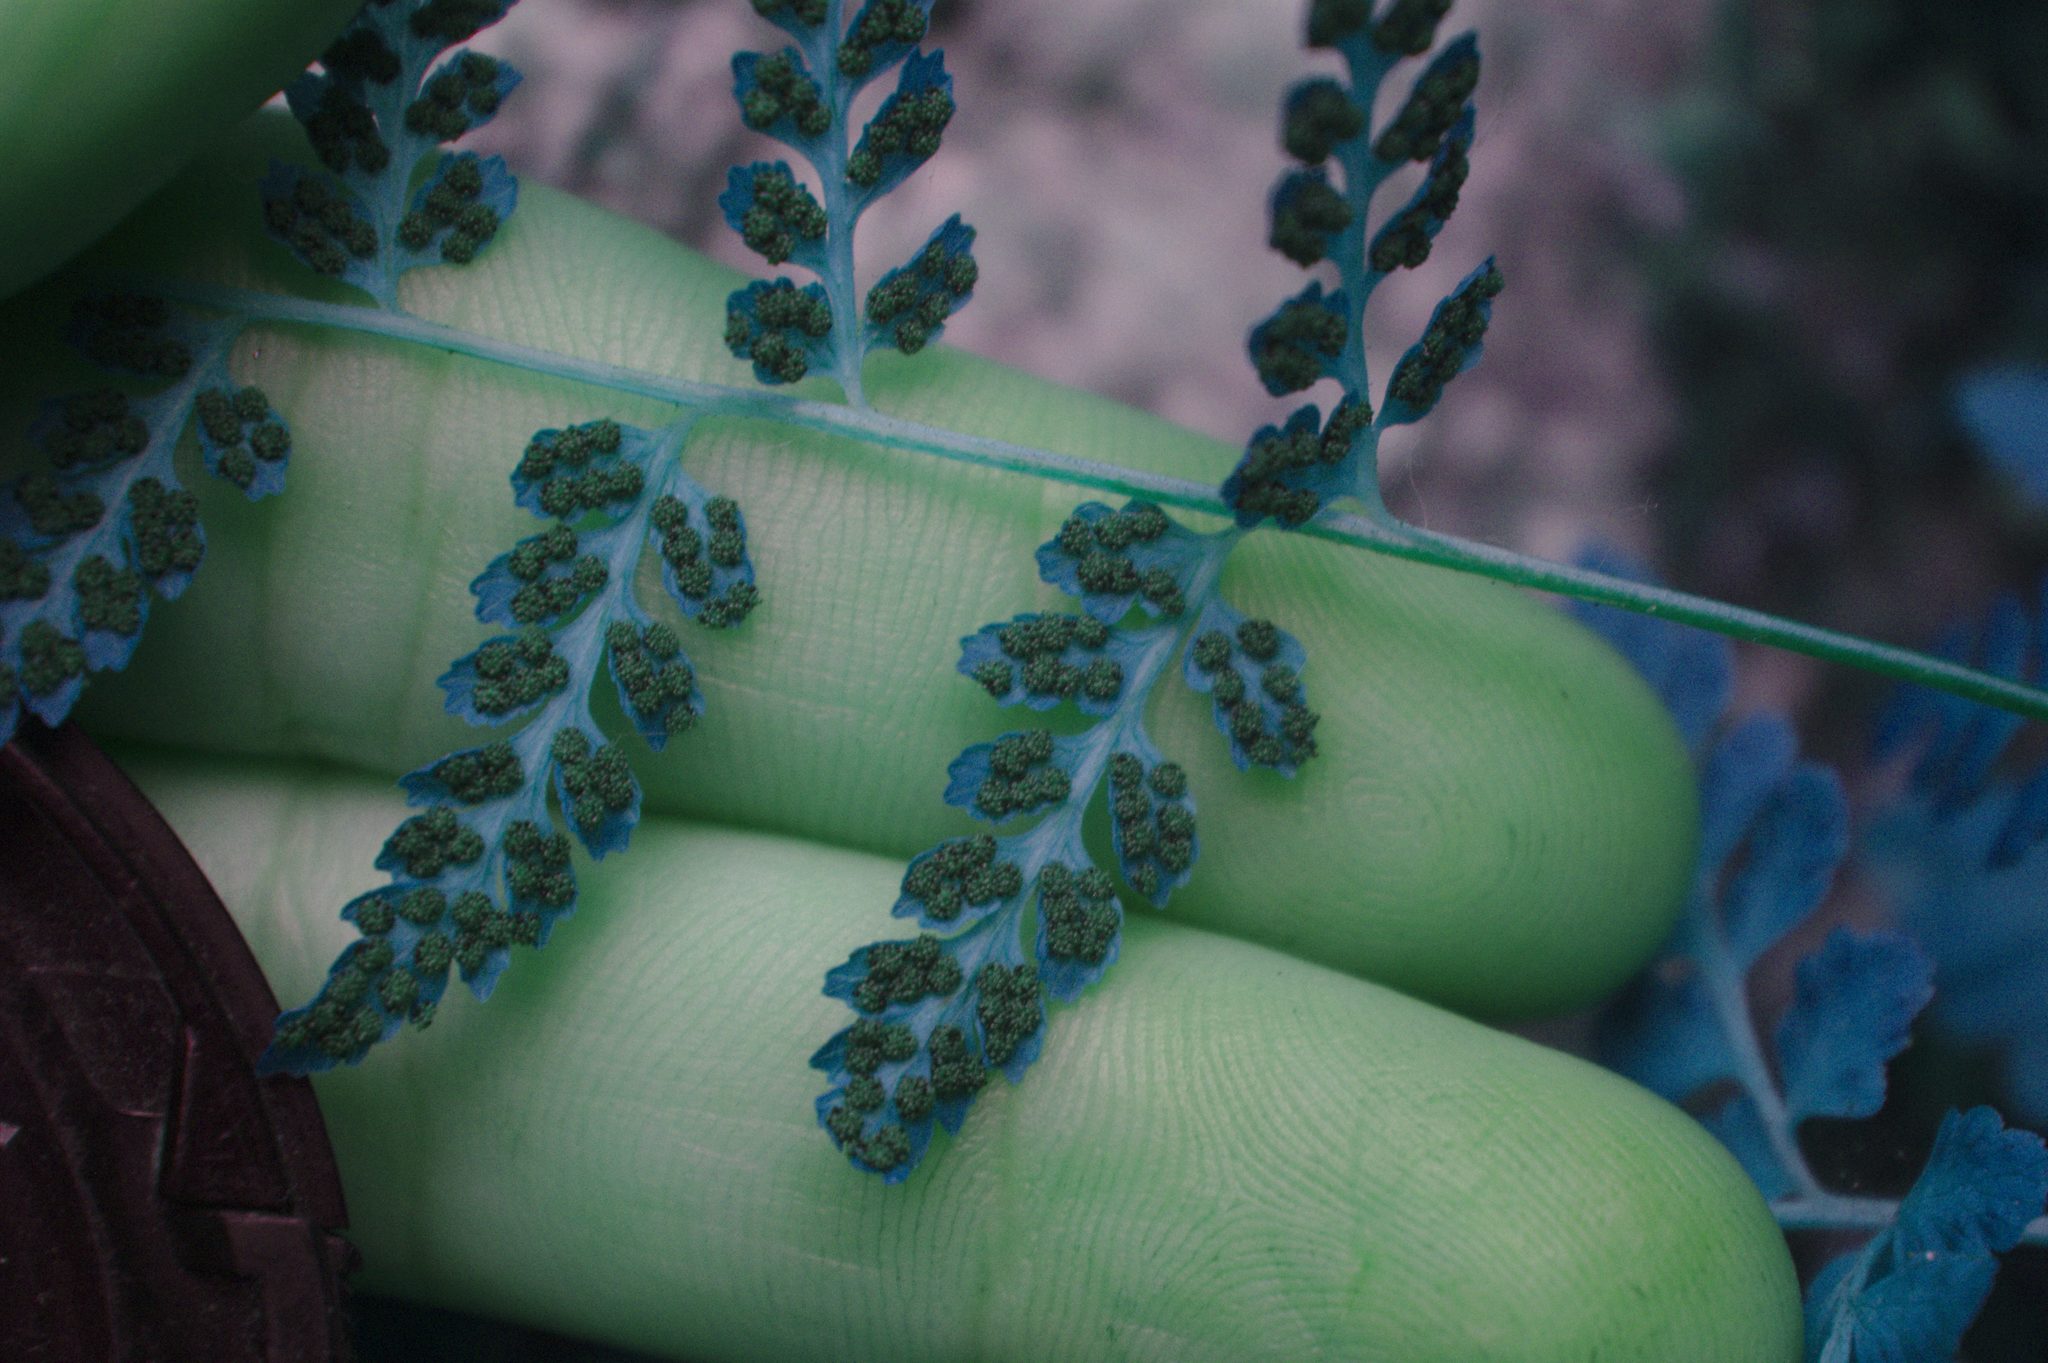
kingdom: Plantae
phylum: Tracheophyta
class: Polypodiopsida
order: Polypodiales
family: Cystopteridaceae
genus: Cystopteris
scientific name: Cystopteris bulbifera
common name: Bulblet bladder fern
